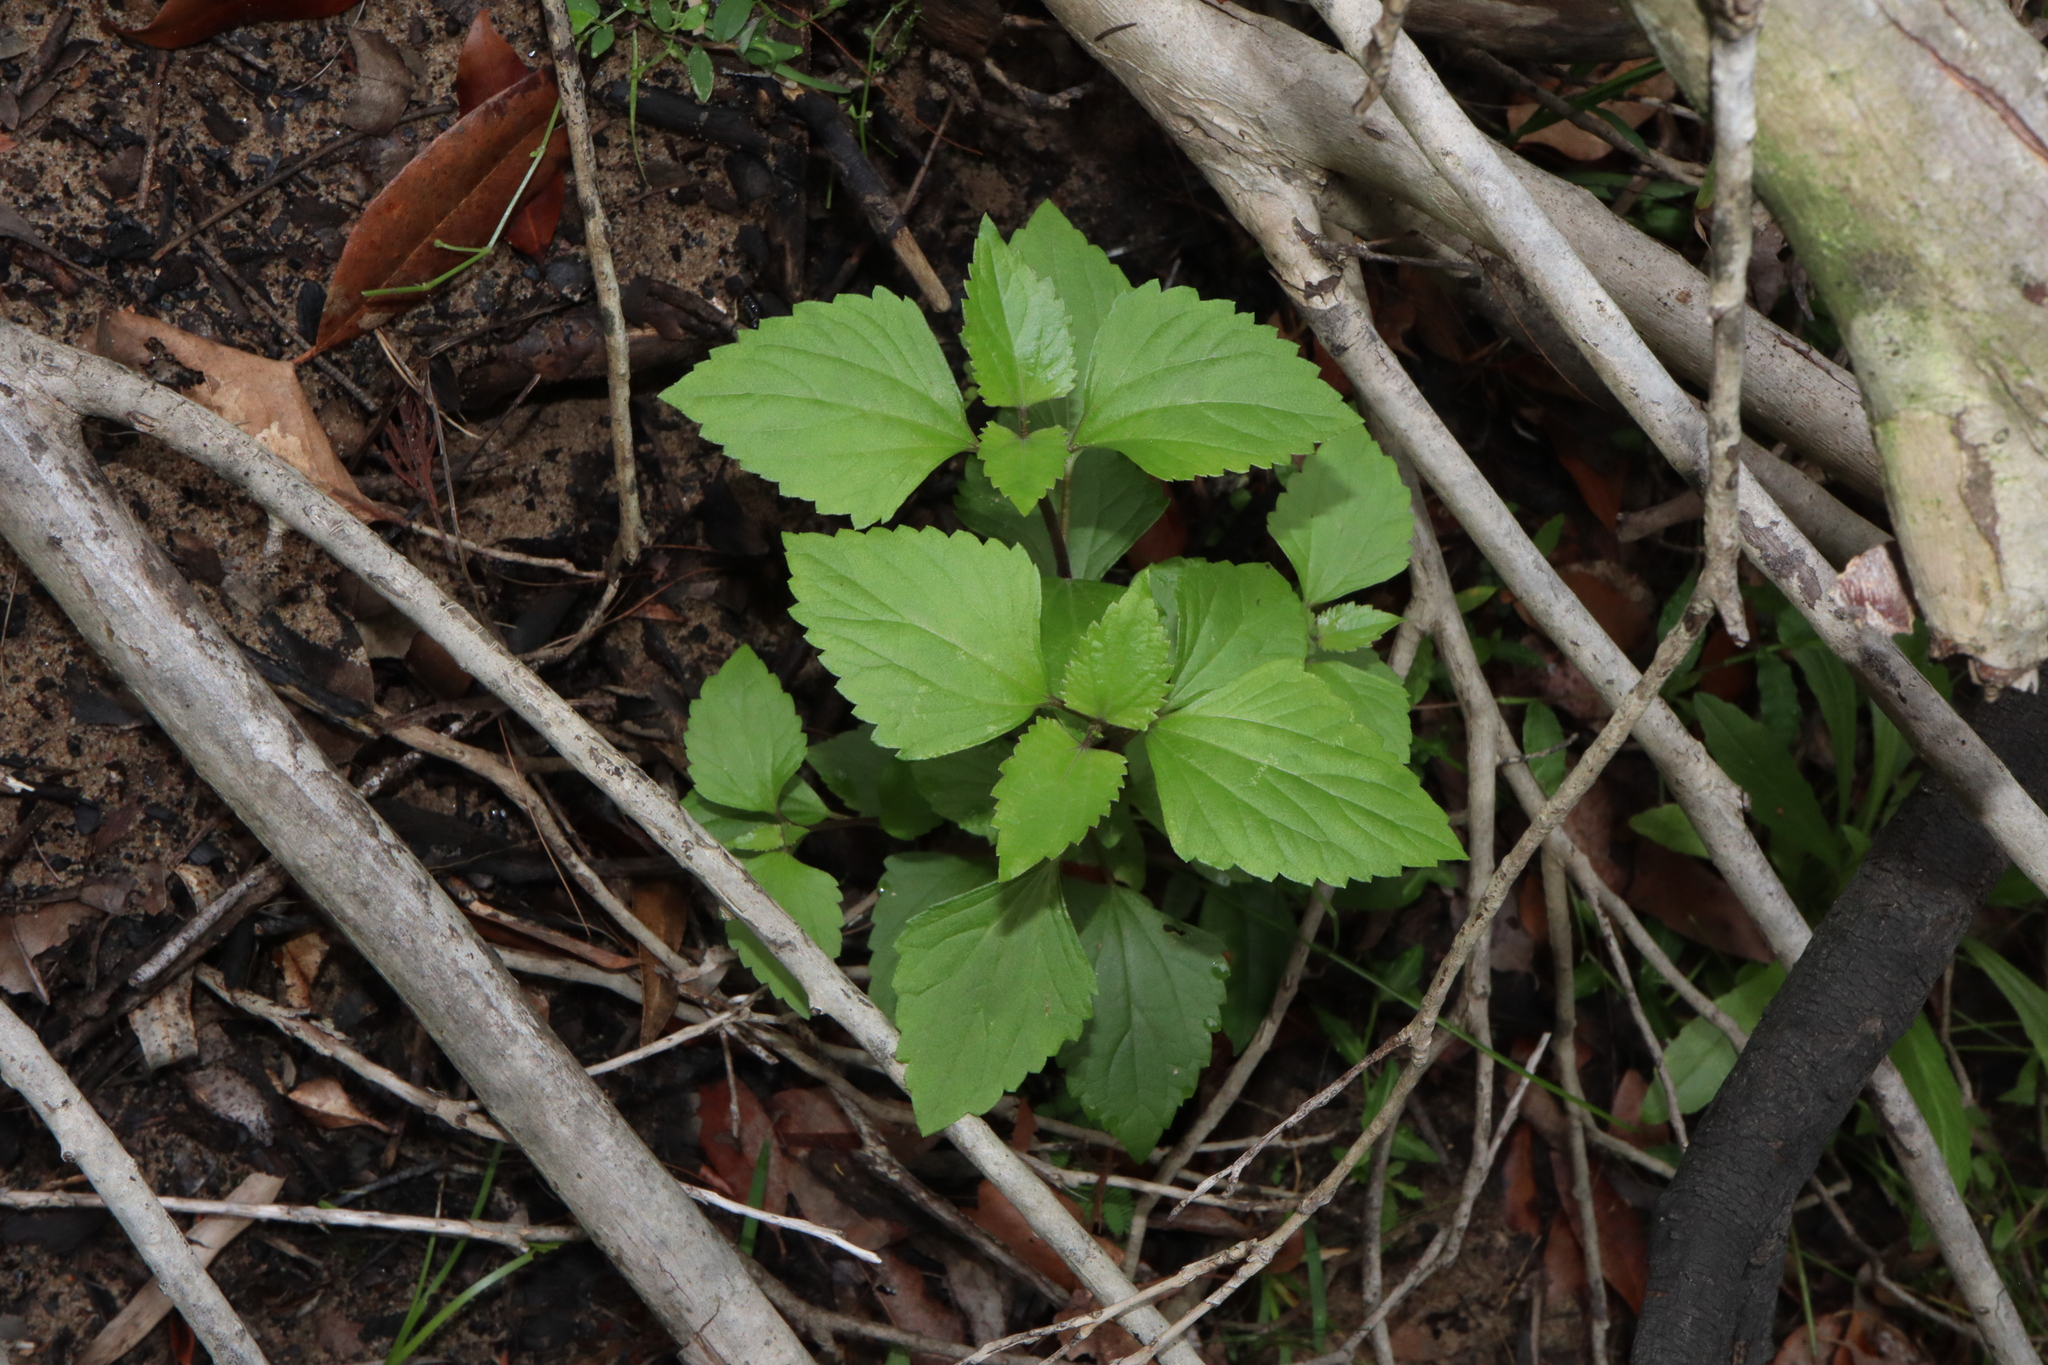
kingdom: Plantae
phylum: Tracheophyta
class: Magnoliopsida
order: Asterales
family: Asteraceae
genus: Ageratina
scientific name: Ageratina adenophora
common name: Sticky snakeroot
